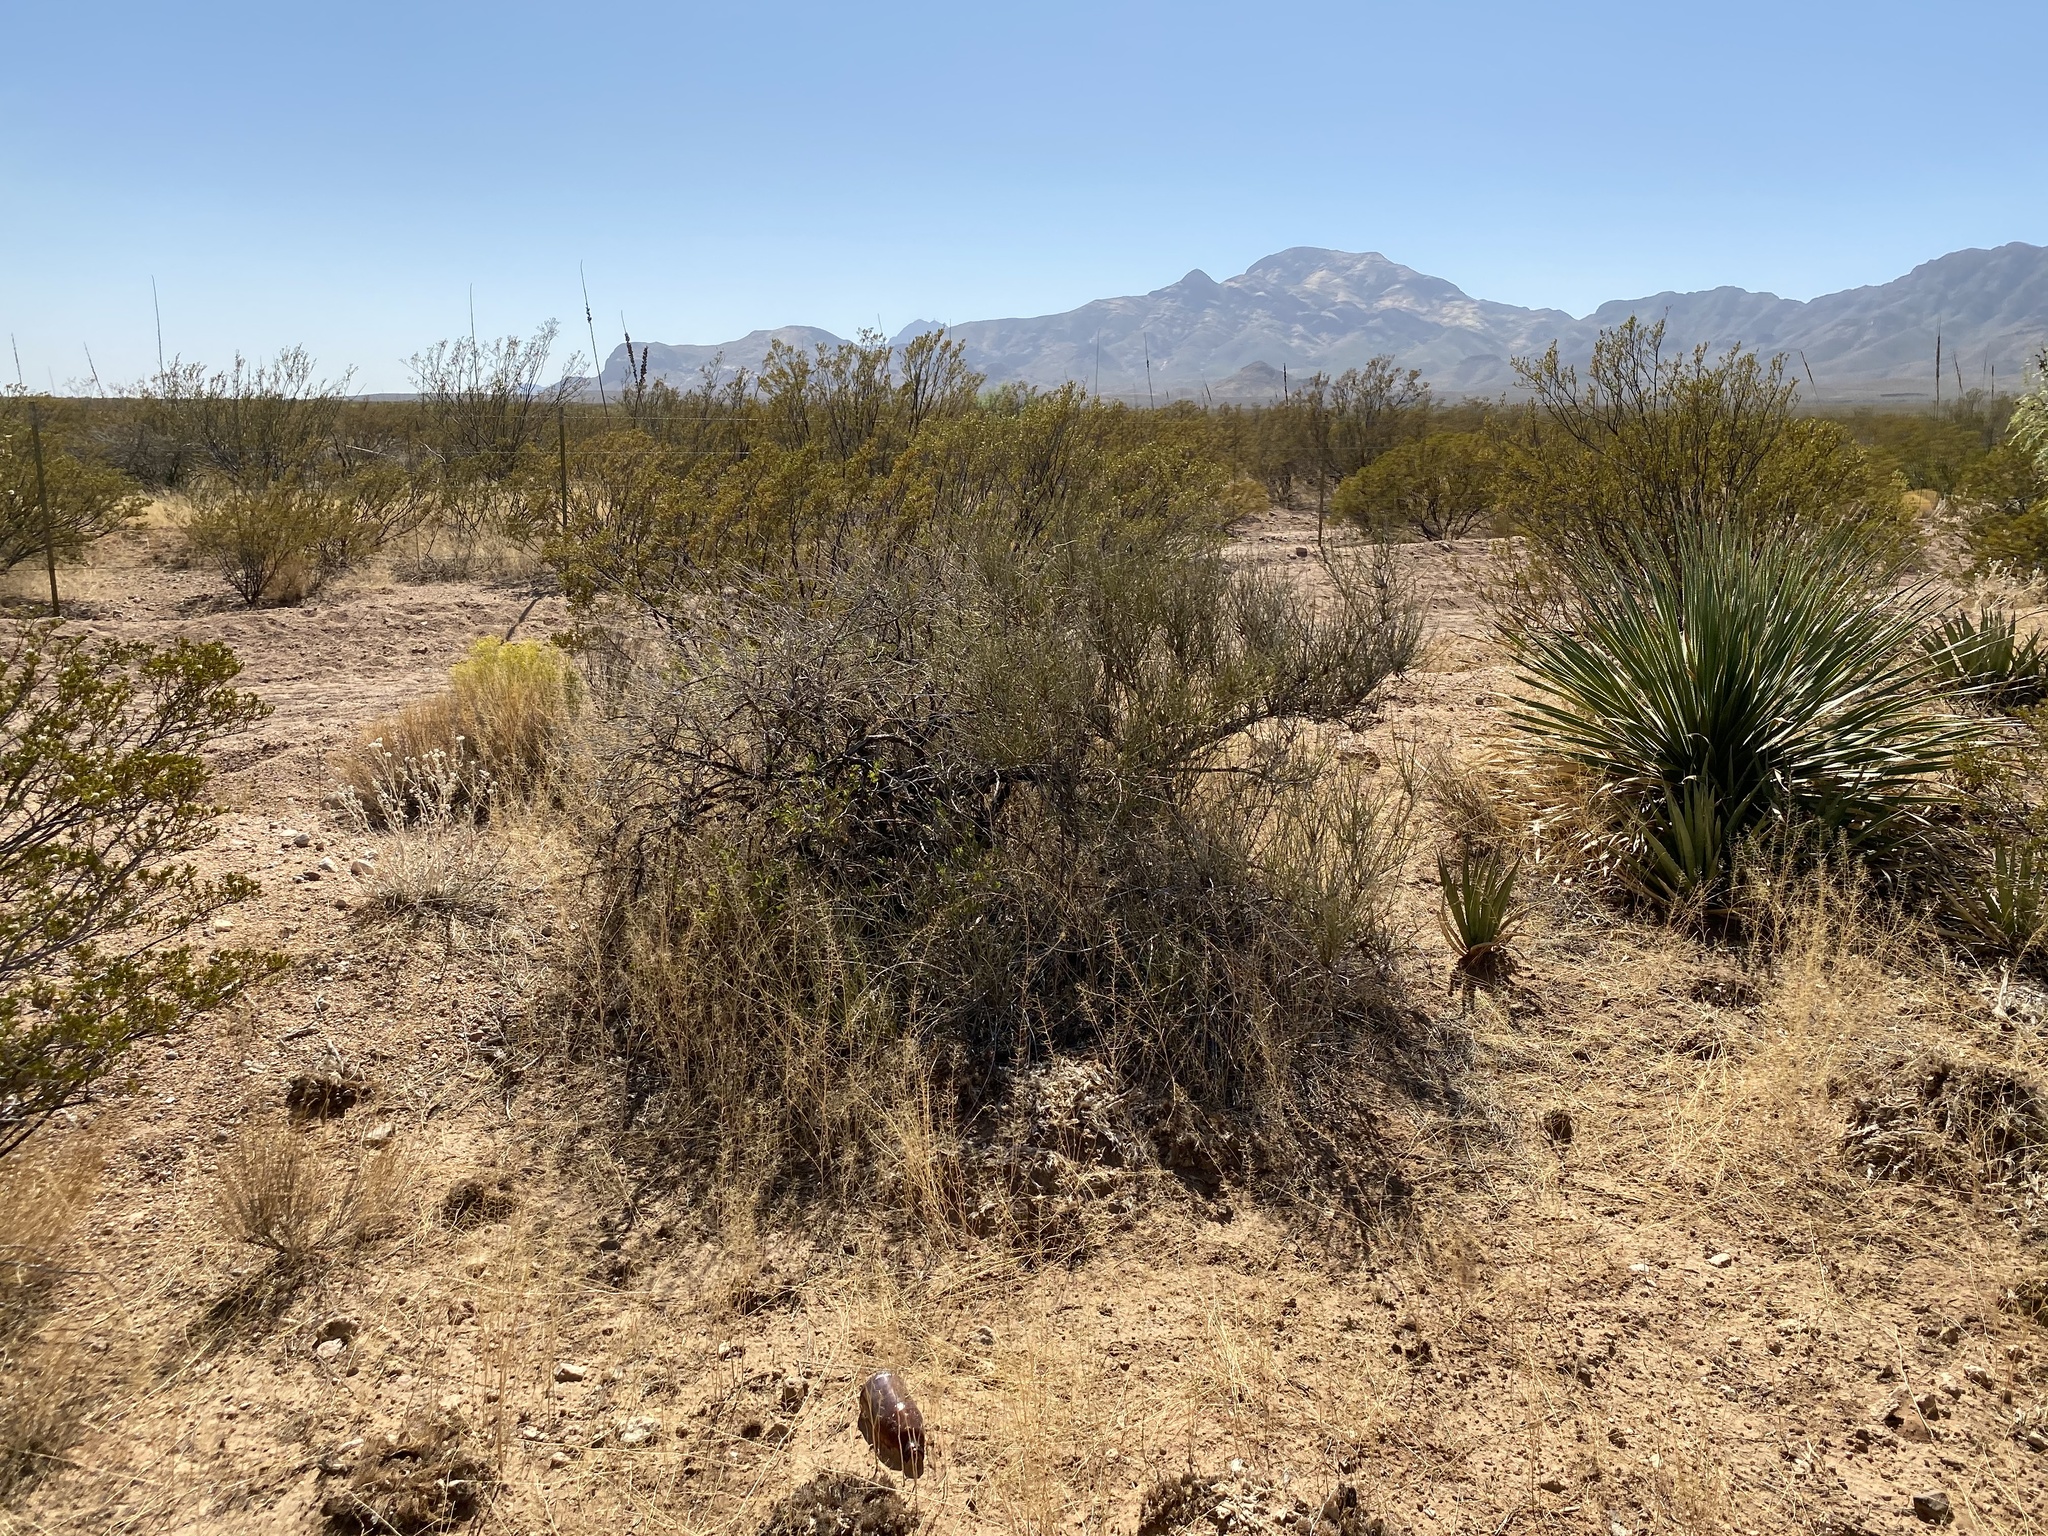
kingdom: Plantae
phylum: Tracheophyta
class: Gnetopsida
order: Ephedrales
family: Ephedraceae
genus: Ephedra
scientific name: Ephedra trifurca
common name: Mexican-tea
